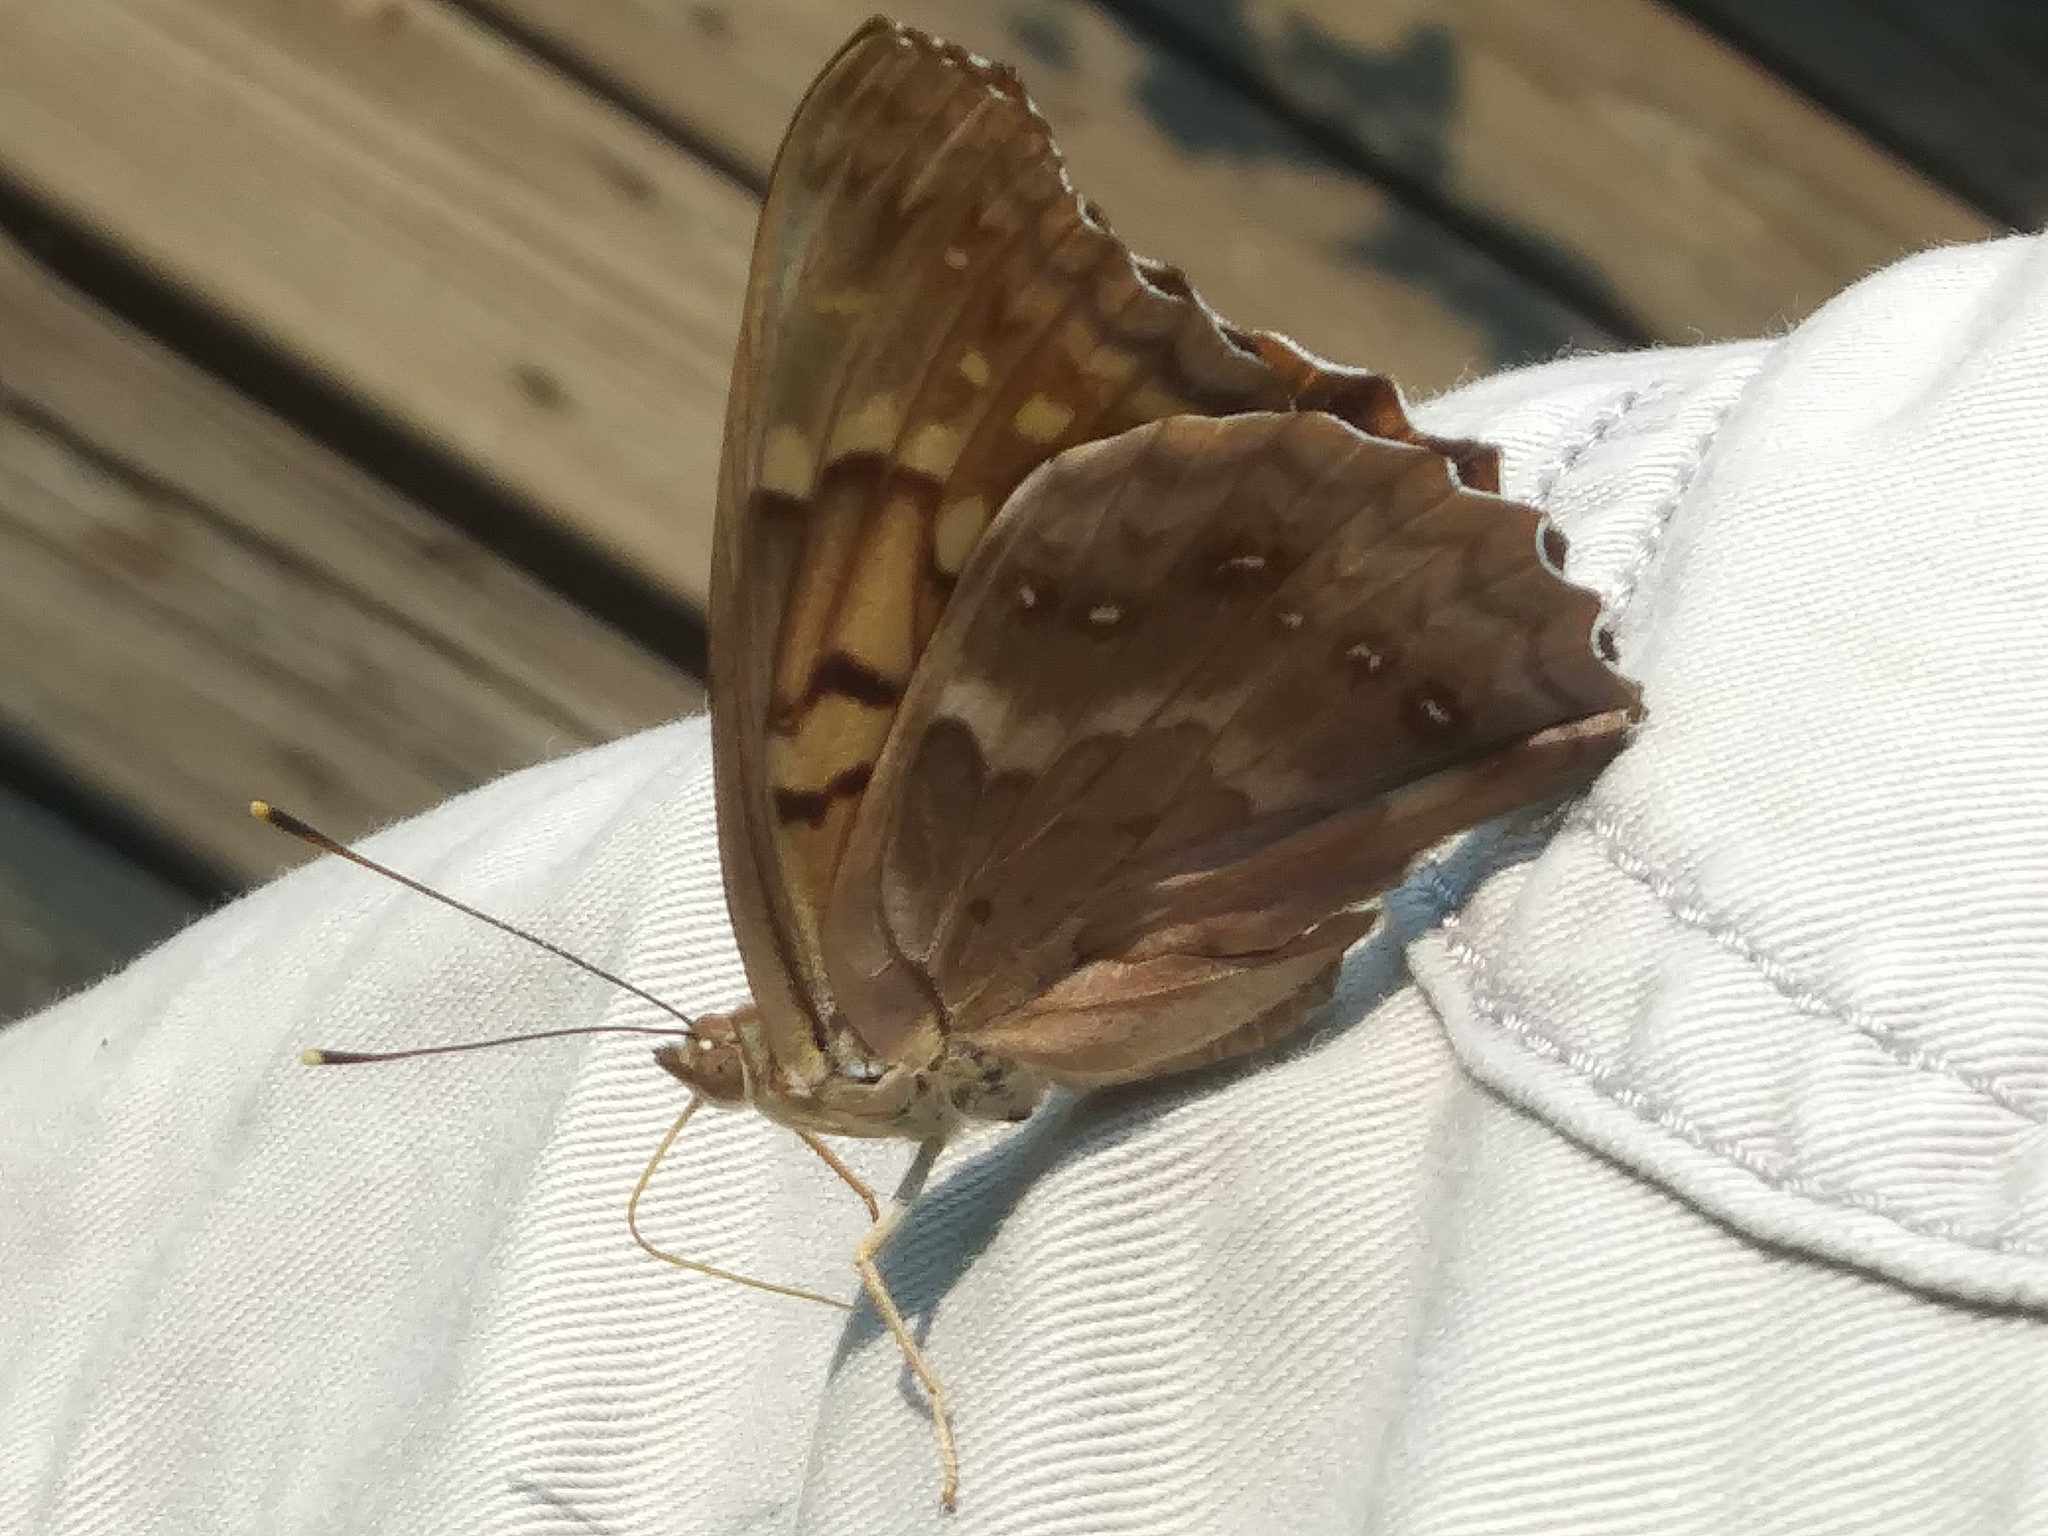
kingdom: Animalia
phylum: Arthropoda
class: Insecta
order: Lepidoptera
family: Nymphalidae
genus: Asterocampa
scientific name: Asterocampa clyton
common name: Tawny emperor
